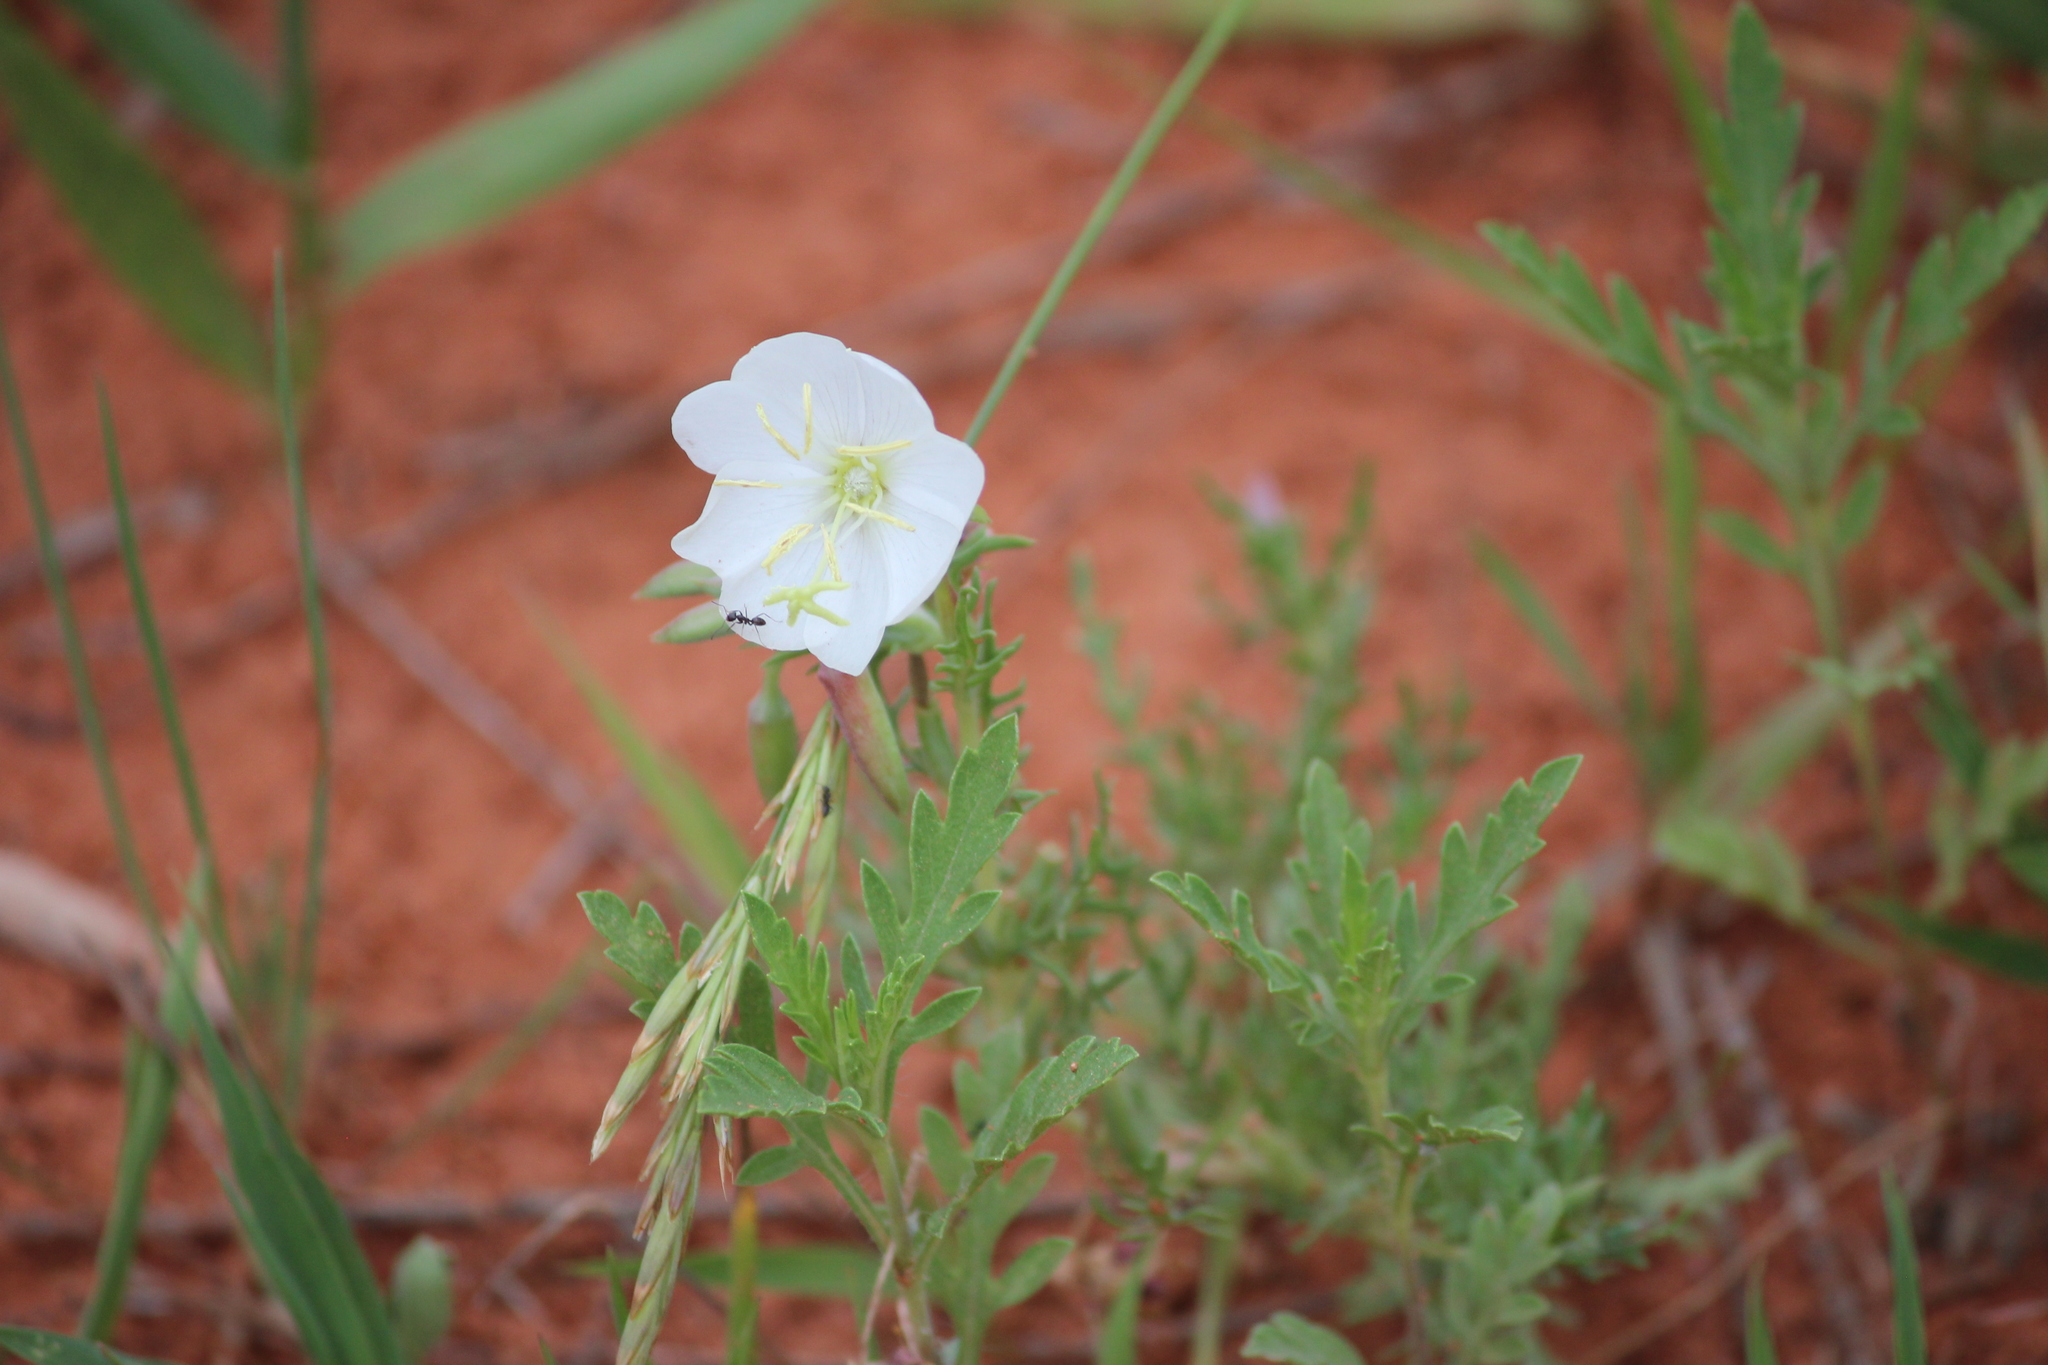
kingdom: Plantae
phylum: Tracheophyta
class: Magnoliopsida
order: Myrtales
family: Onagraceae
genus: Oenothera
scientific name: Oenothera coronopifolia
